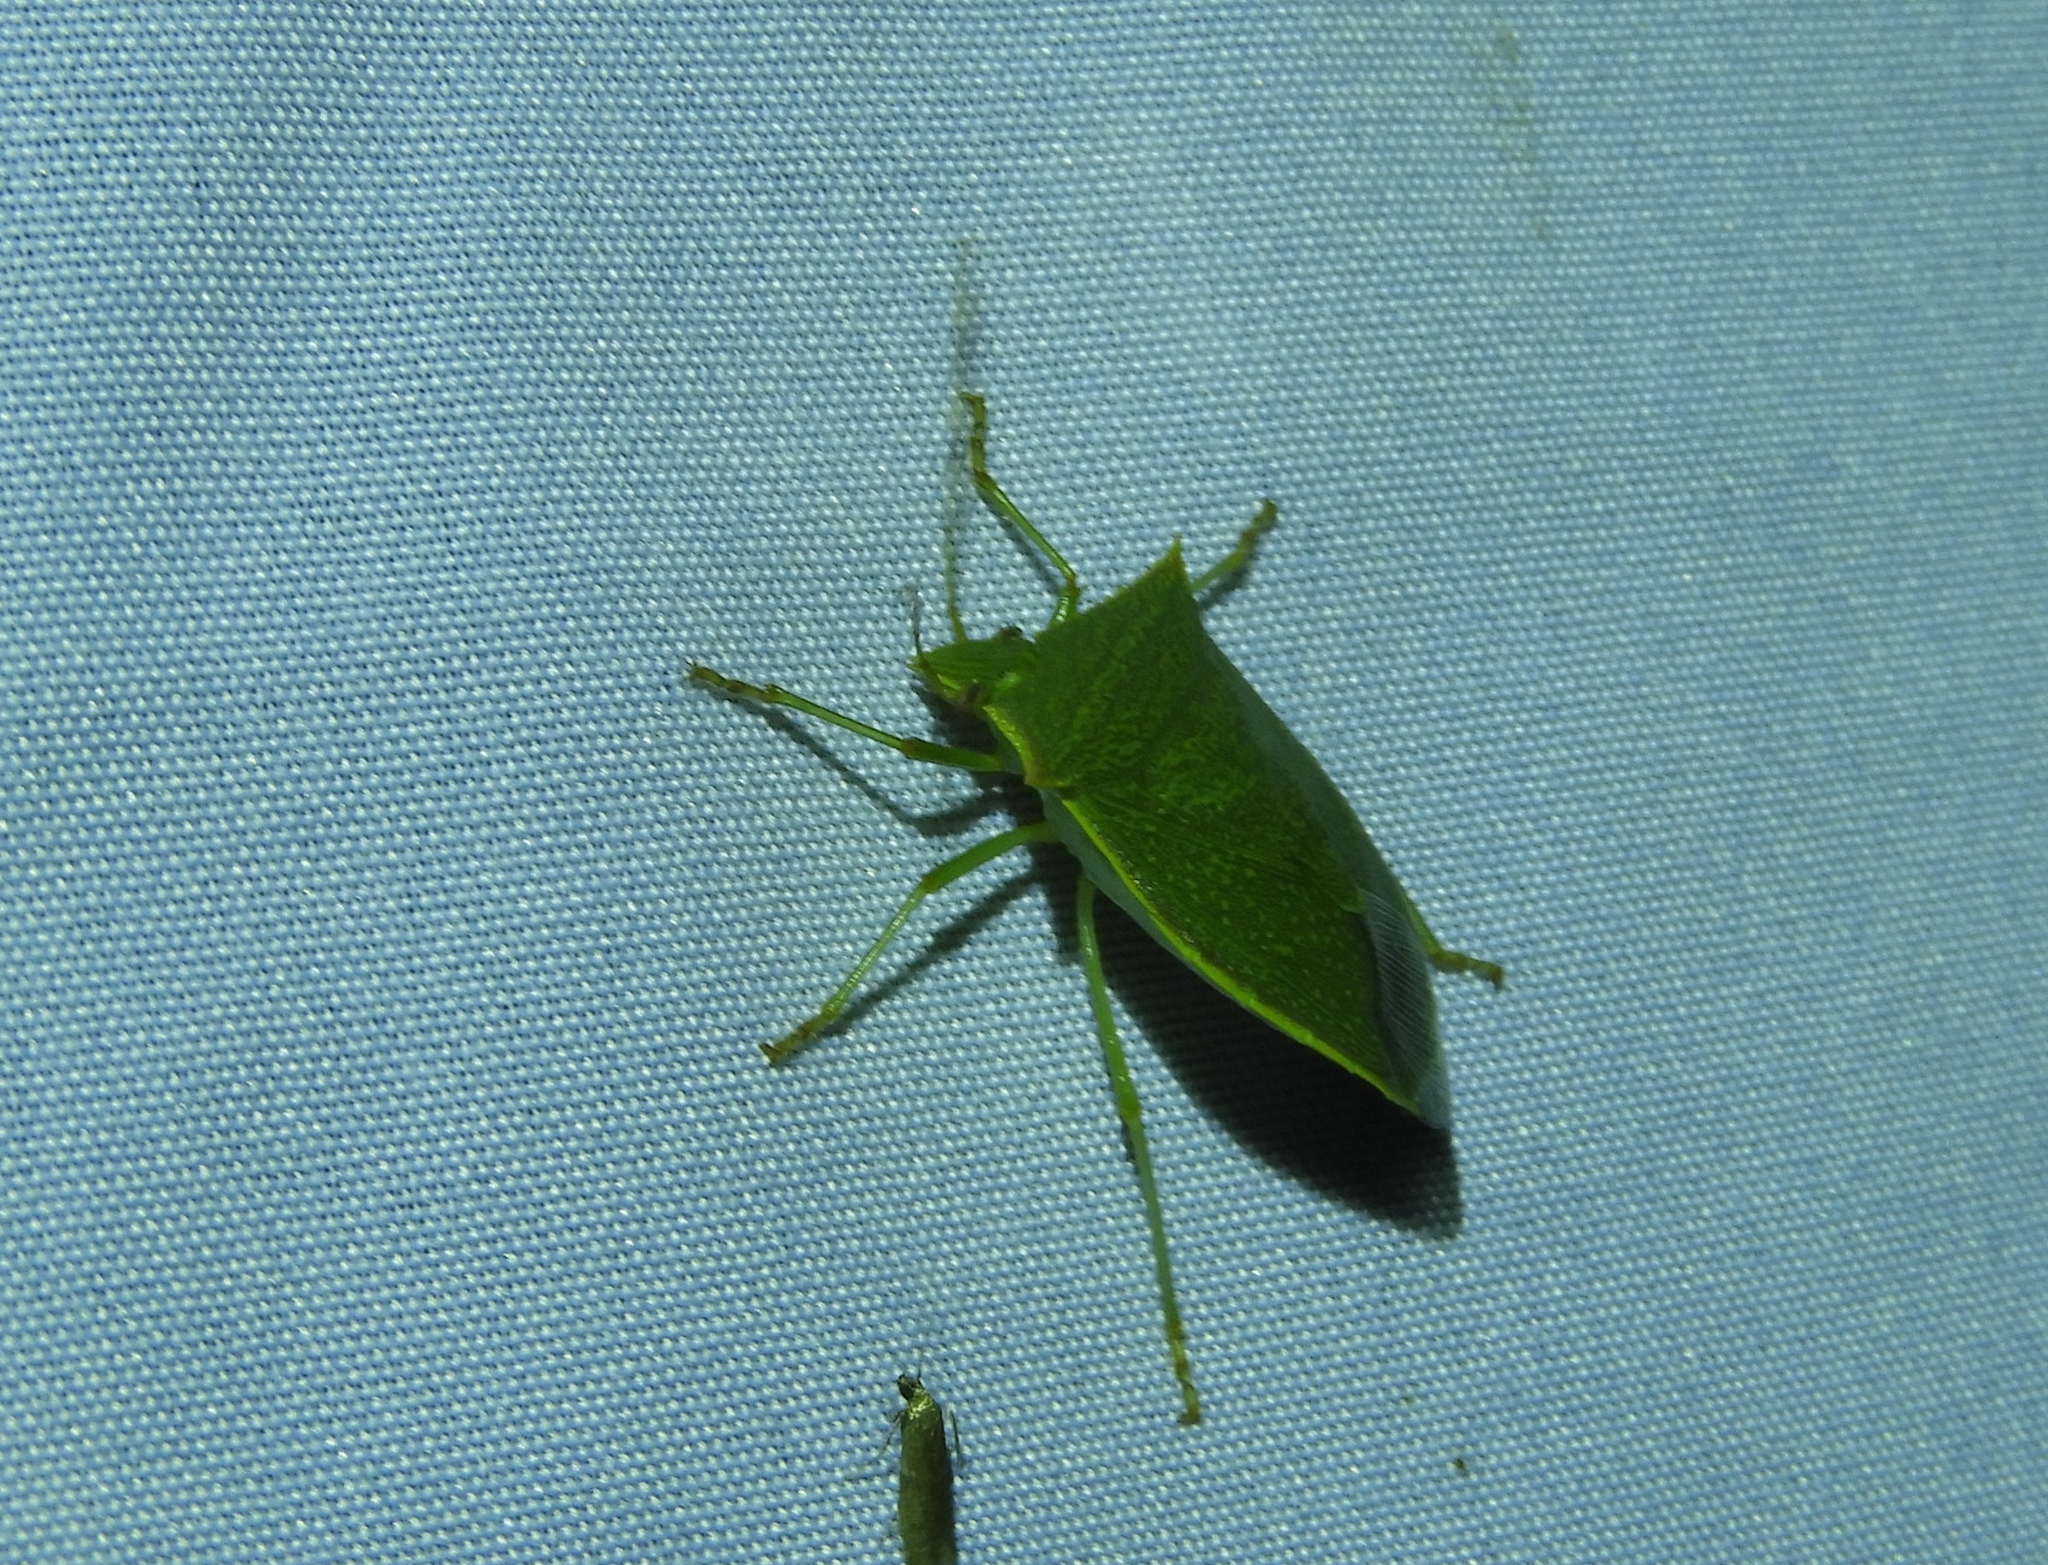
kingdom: Animalia
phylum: Arthropoda
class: Insecta
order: Hemiptera
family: Pentatomidae
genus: Loxa
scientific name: Loxa
